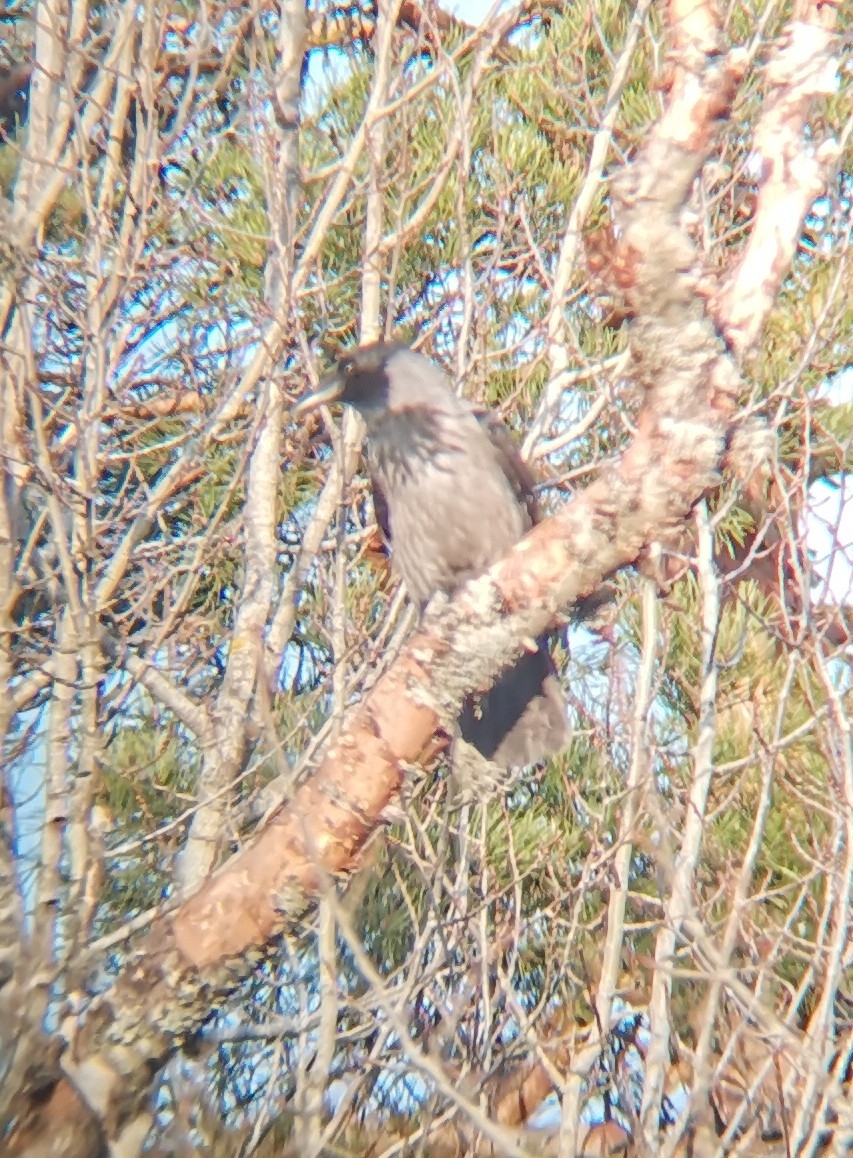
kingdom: Animalia
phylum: Chordata
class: Aves
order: Passeriformes
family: Corvidae
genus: Corvus
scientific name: Corvus cornix
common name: Hooded crow
